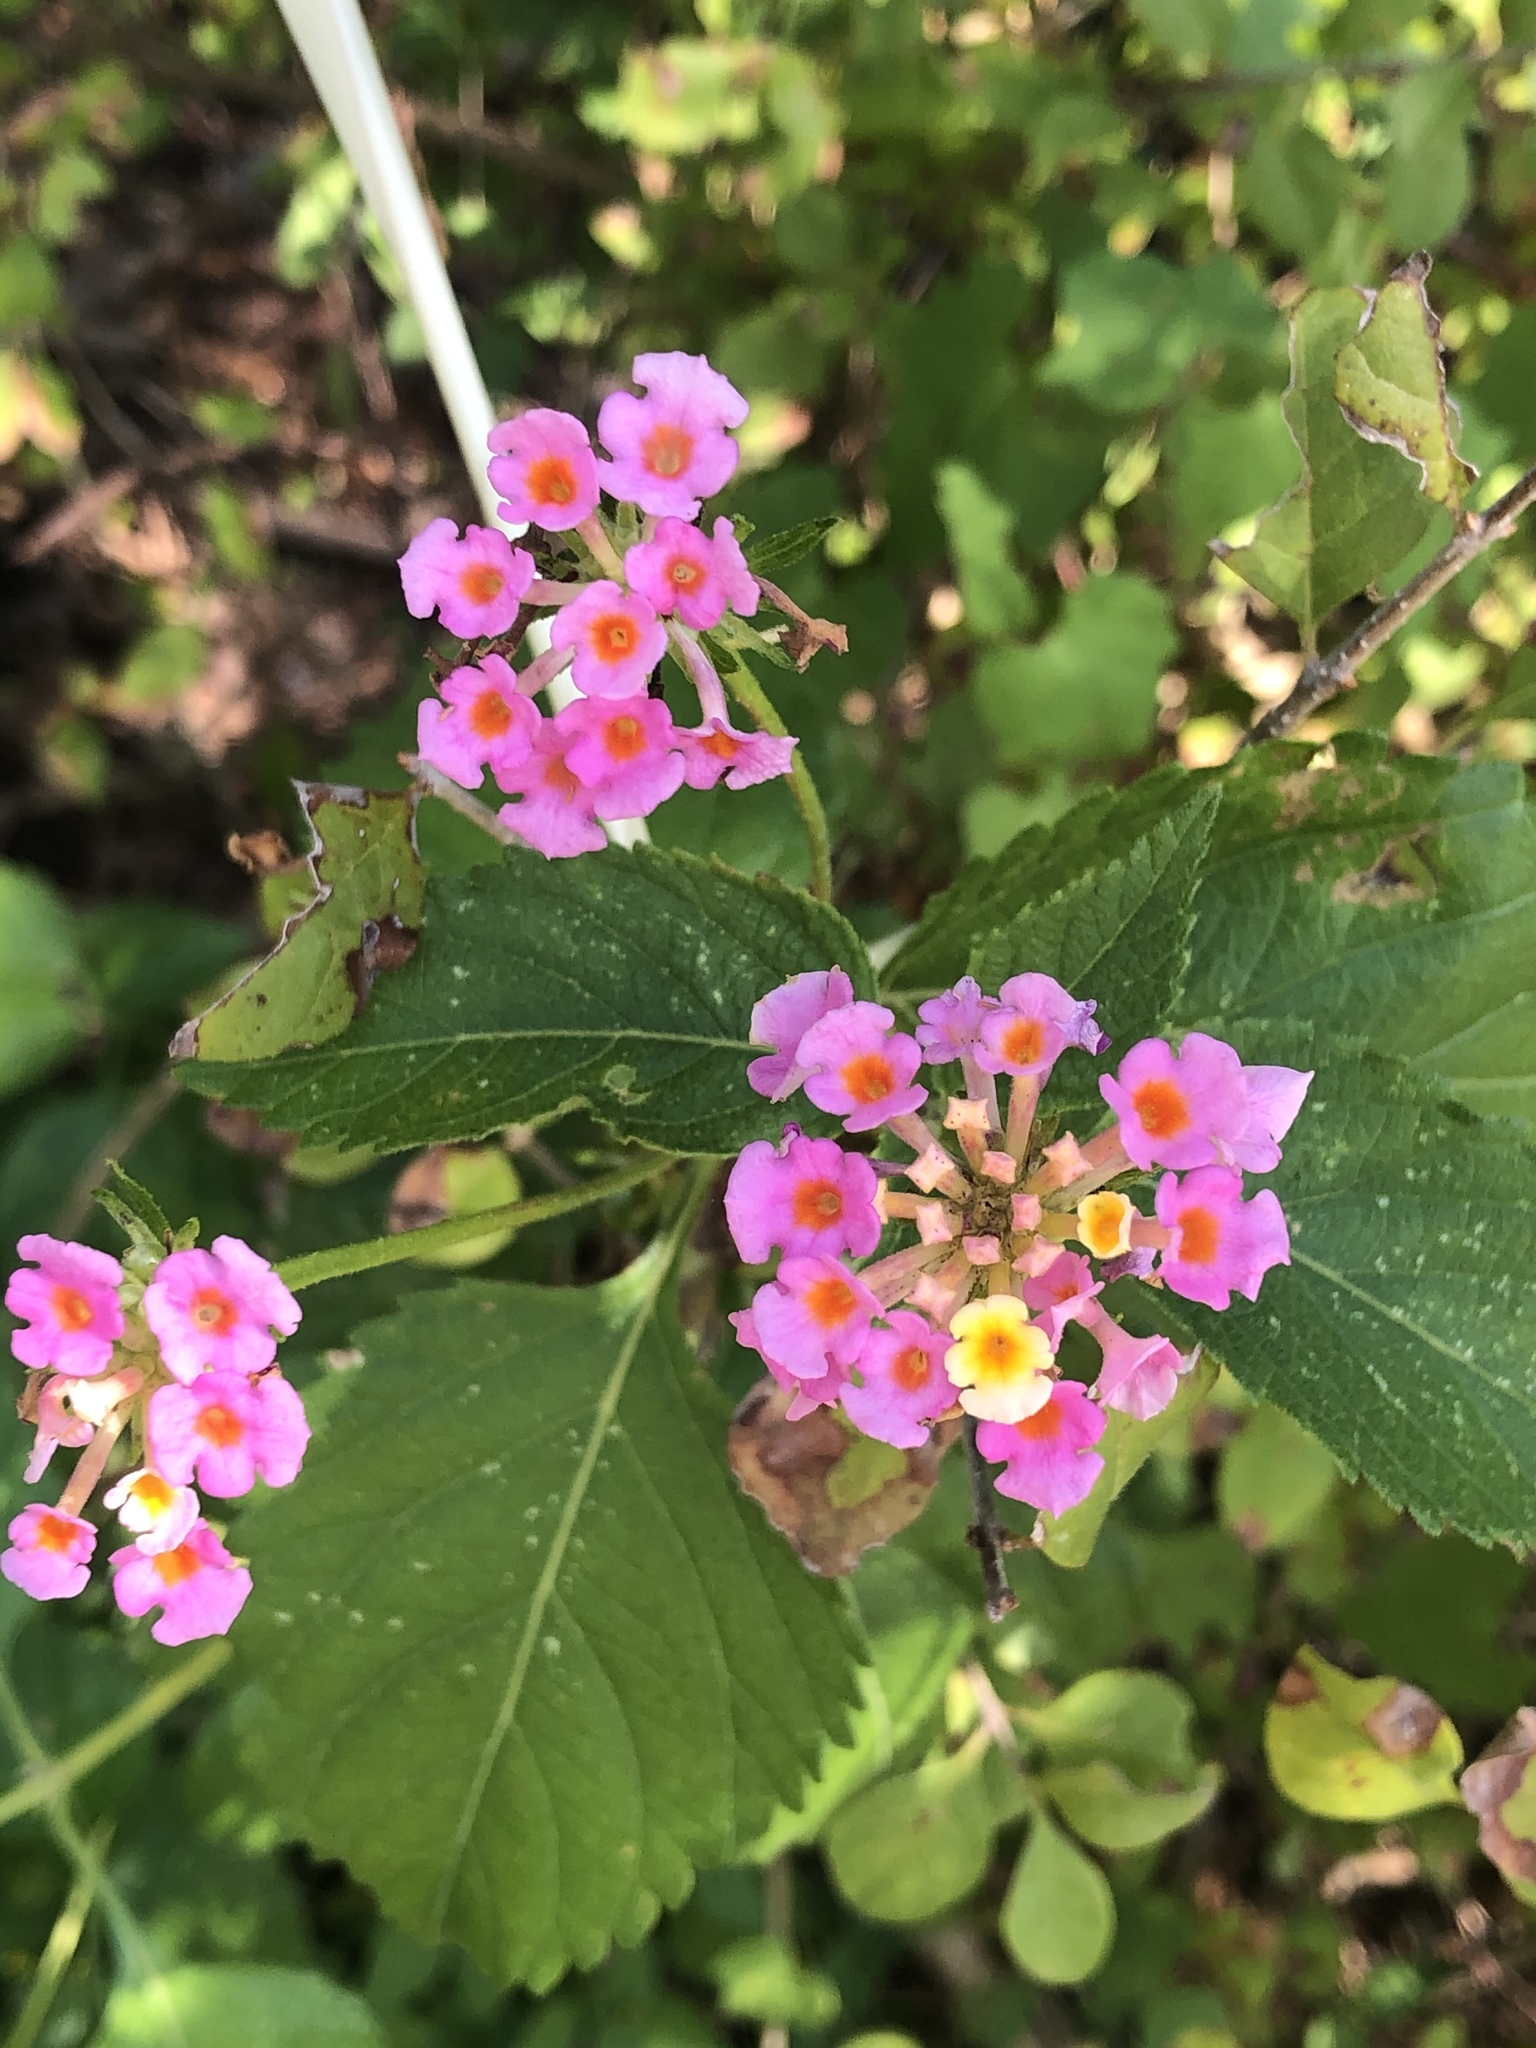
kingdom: Plantae
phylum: Tracheophyta
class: Magnoliopsida
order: Lamiales
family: Verbenaceae
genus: Lantana
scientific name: Lantana strigocamara
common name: Lantana
